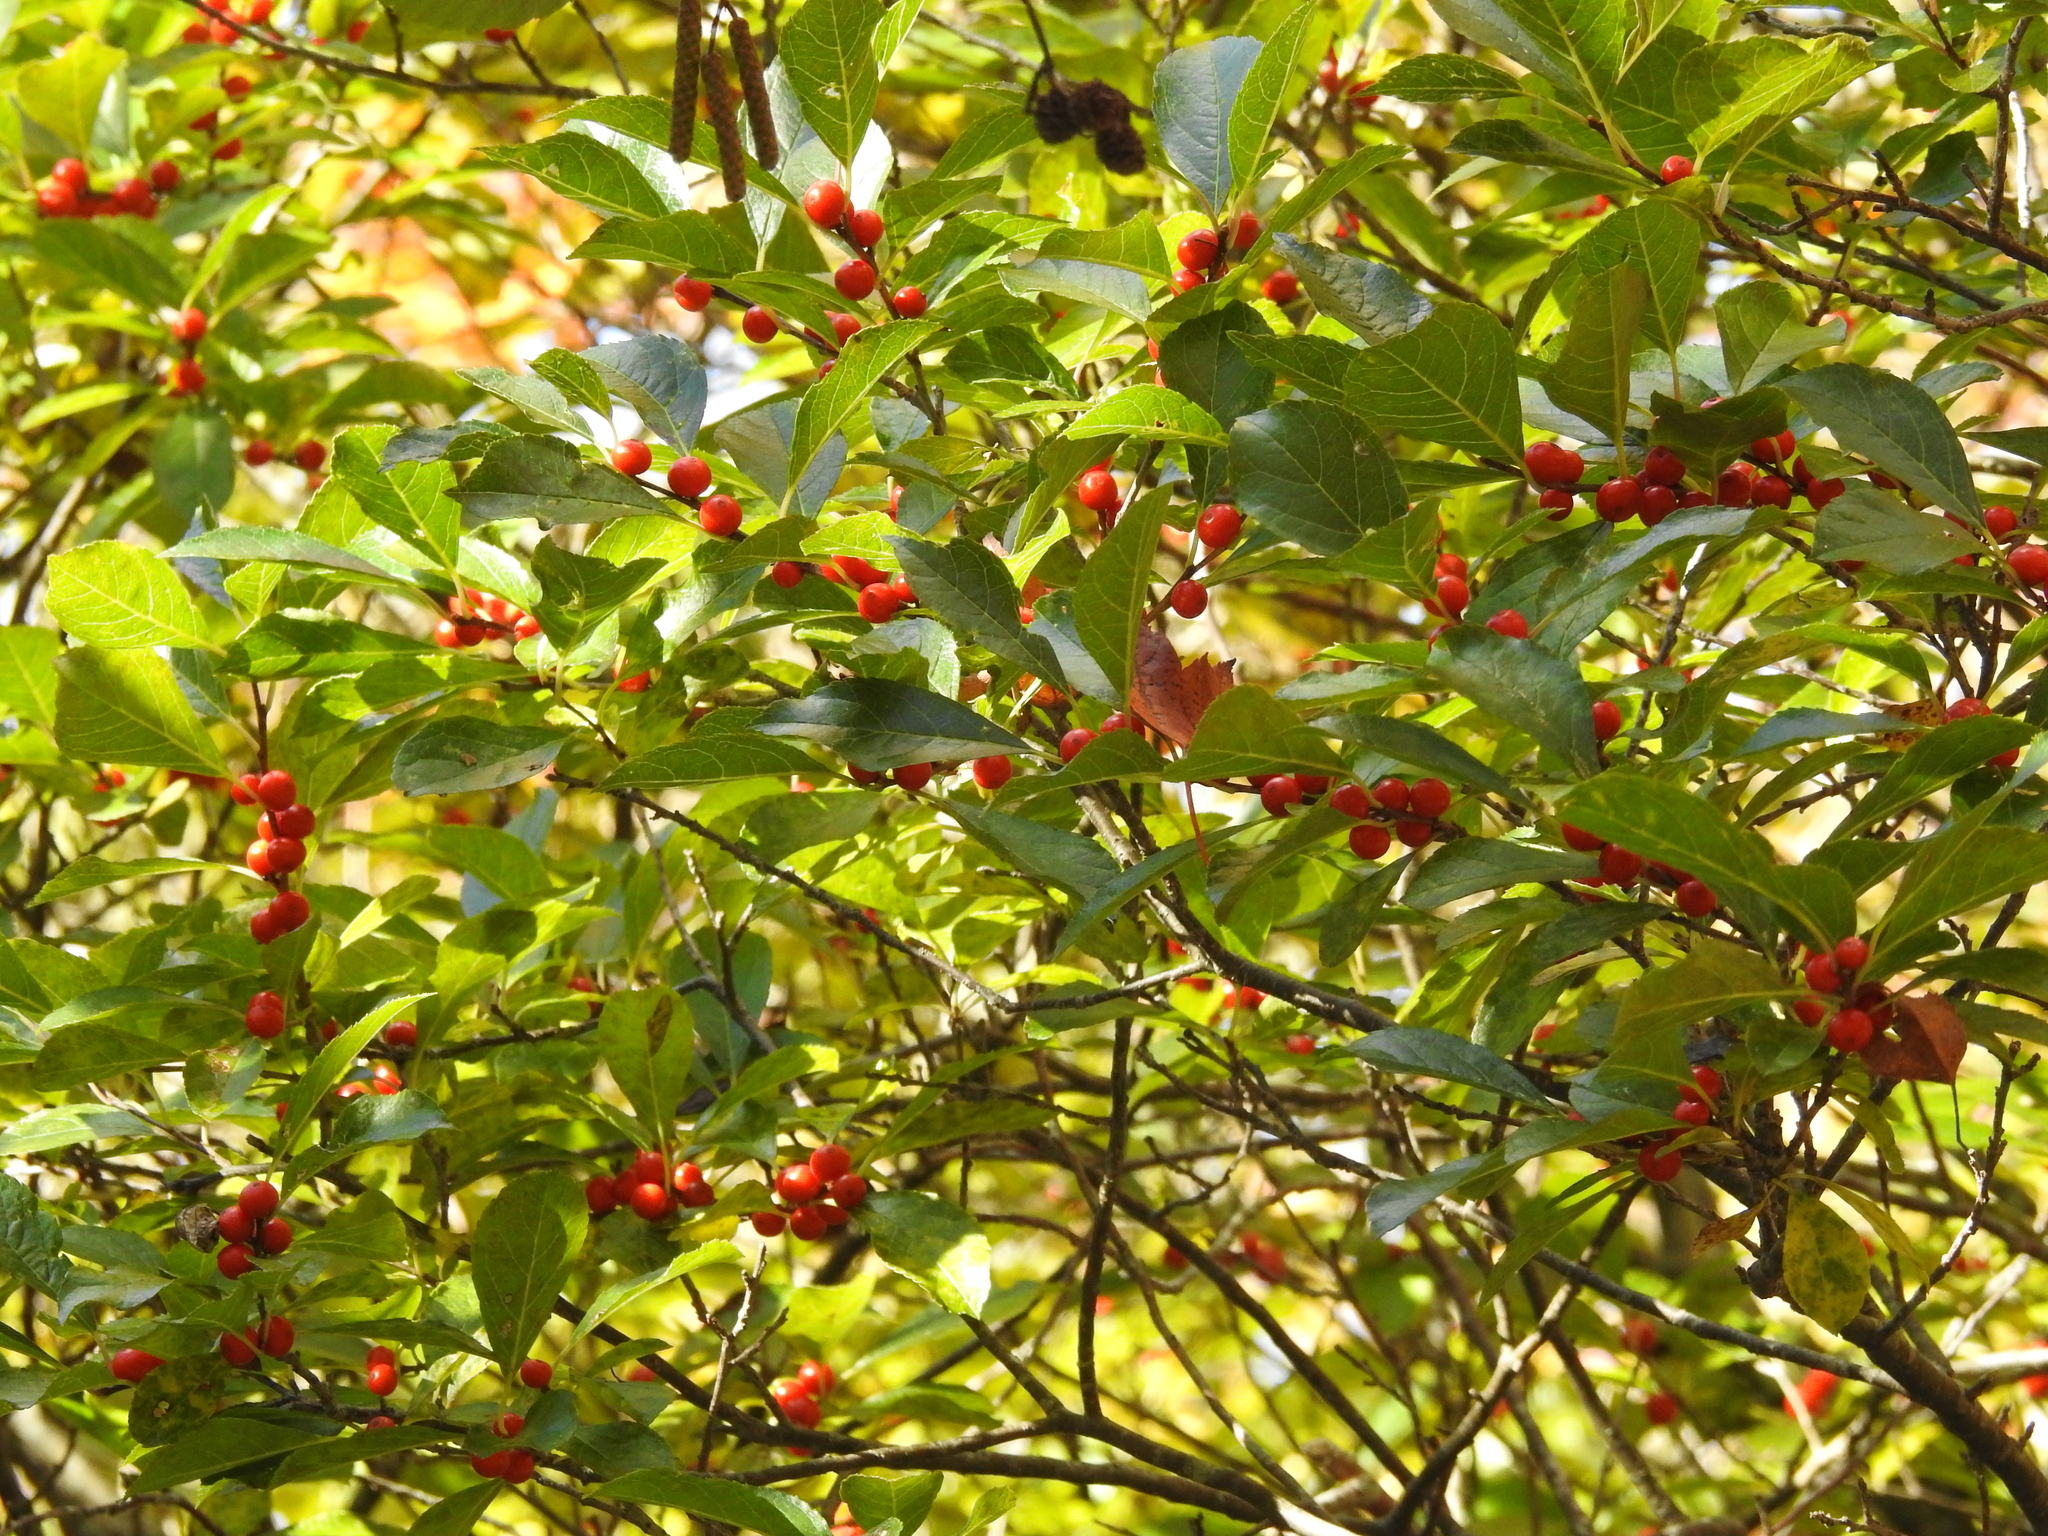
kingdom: Plantae
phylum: Tracheophyta
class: Magnoliopsida
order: Aquifoliales
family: Aquifoliaceae
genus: Ilex
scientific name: Ilex verticillata
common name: Virginia winterberry
